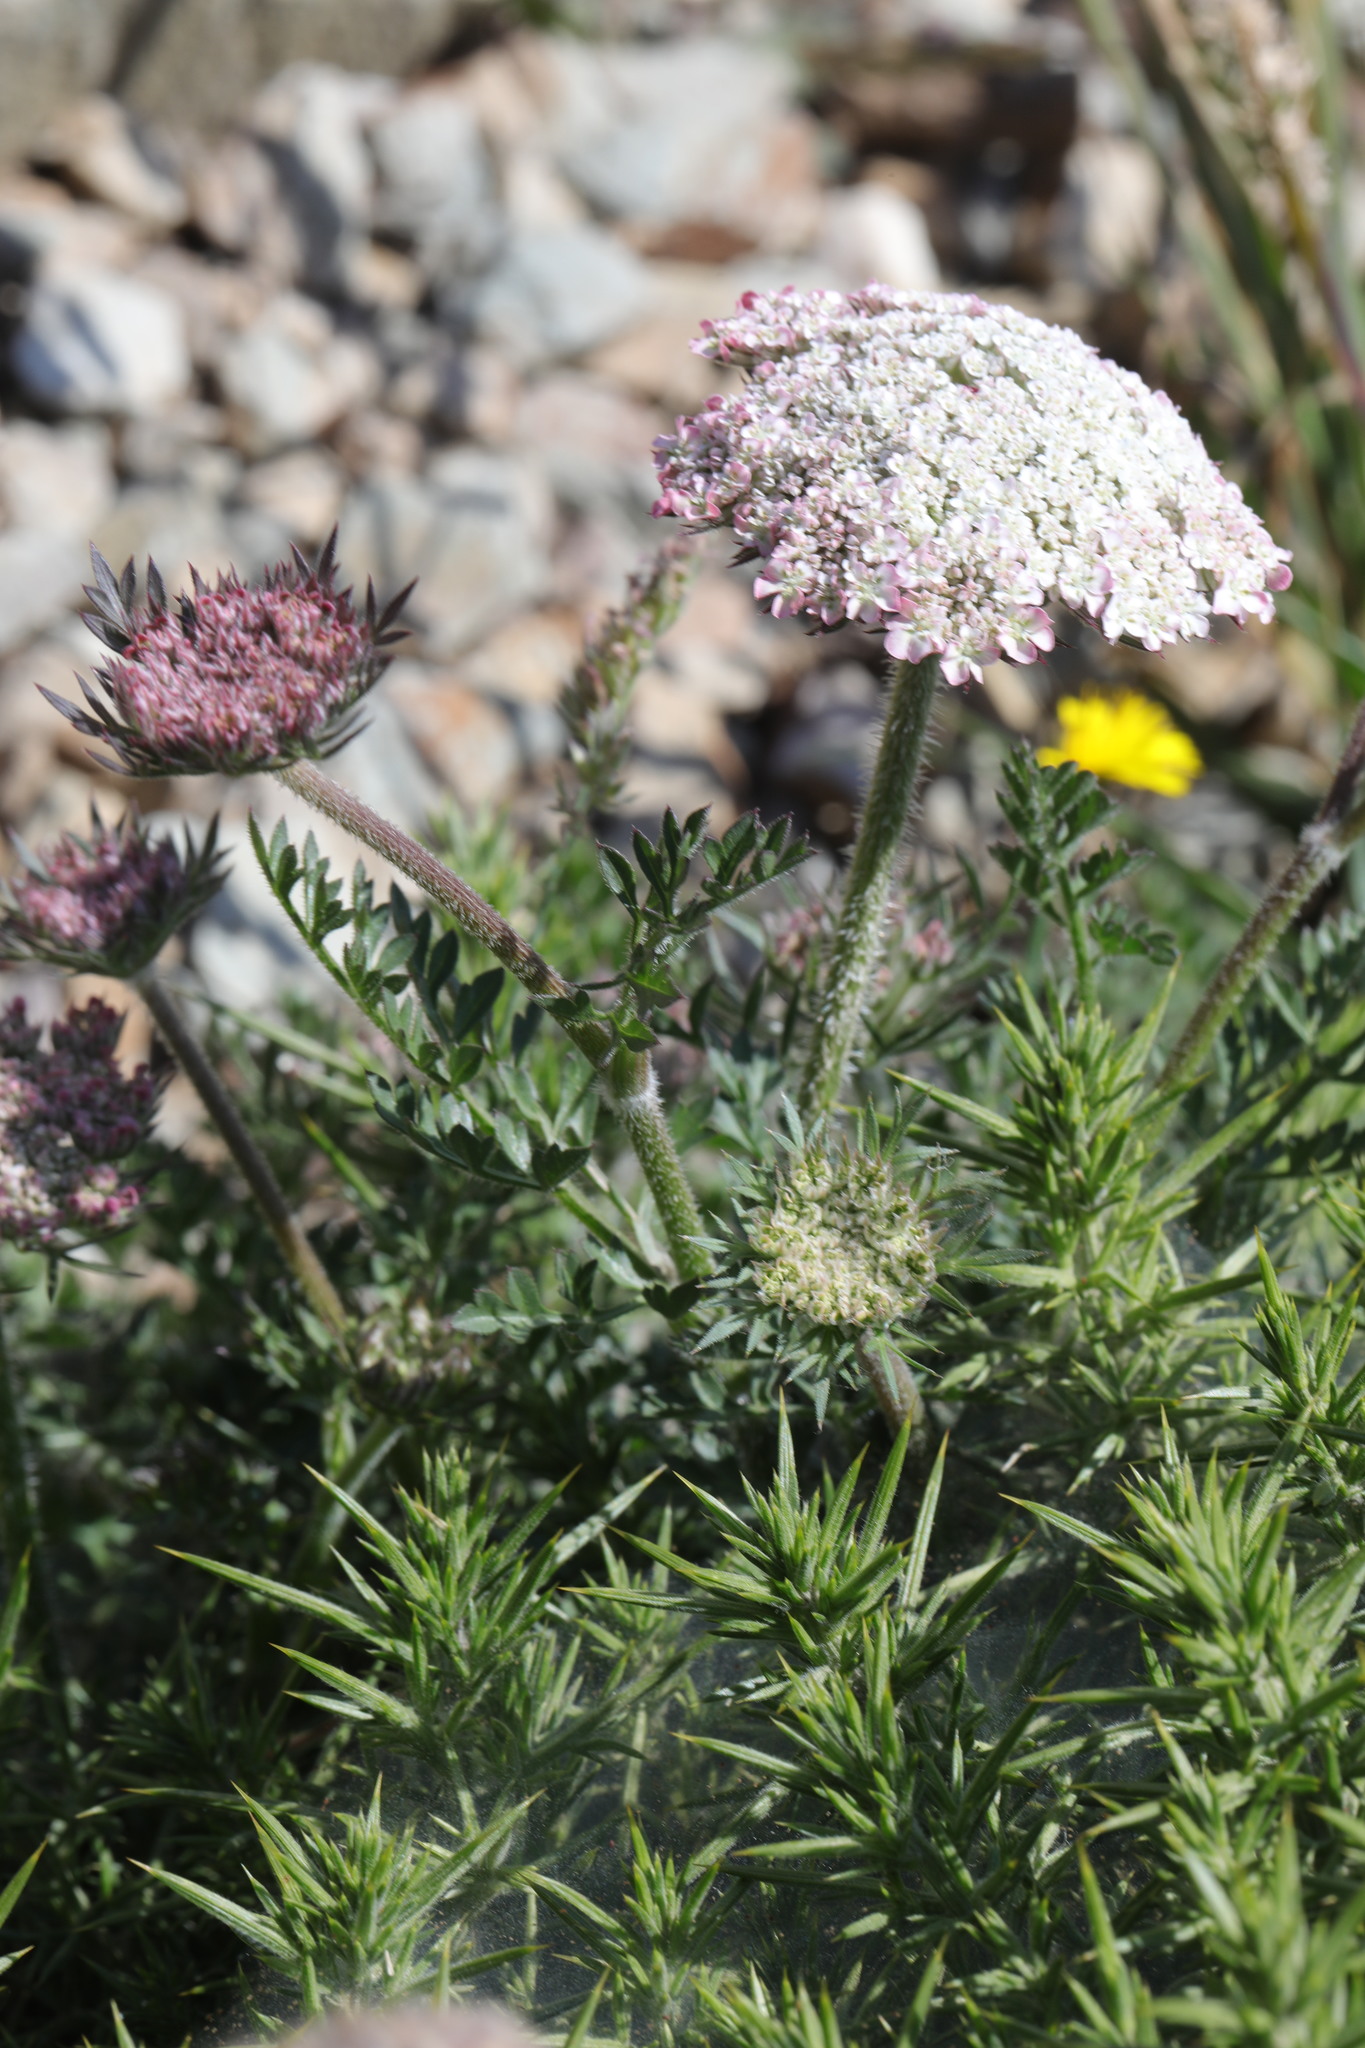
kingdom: Plantae
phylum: Tracheophyta
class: Magnoliopsida
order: Apiales
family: Apiaceae
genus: Daucus
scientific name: Daucus carota
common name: Wild carrot
